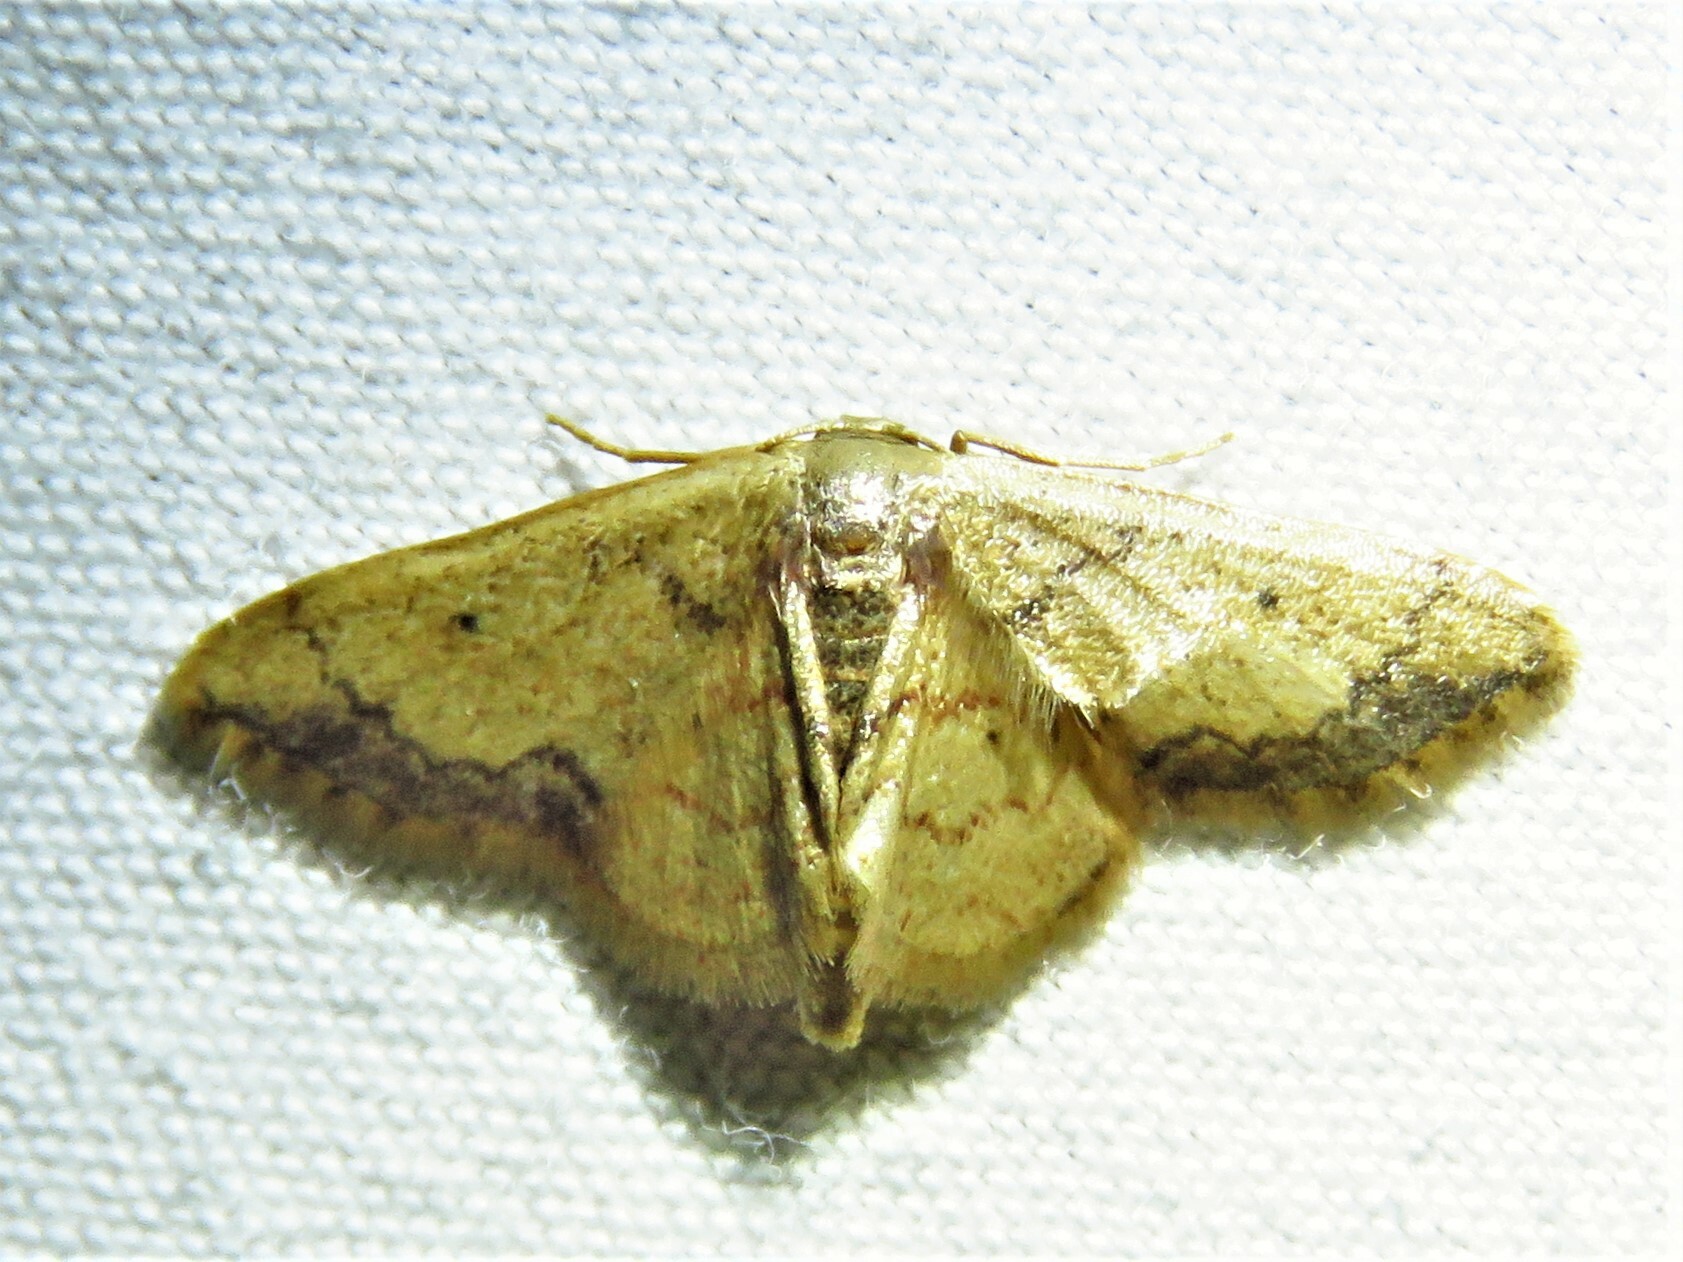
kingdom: Animalia
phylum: Arthropoda
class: Insecta
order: Lepidoptera
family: Geometridae
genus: Idaea
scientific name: Idaea kendallaria
